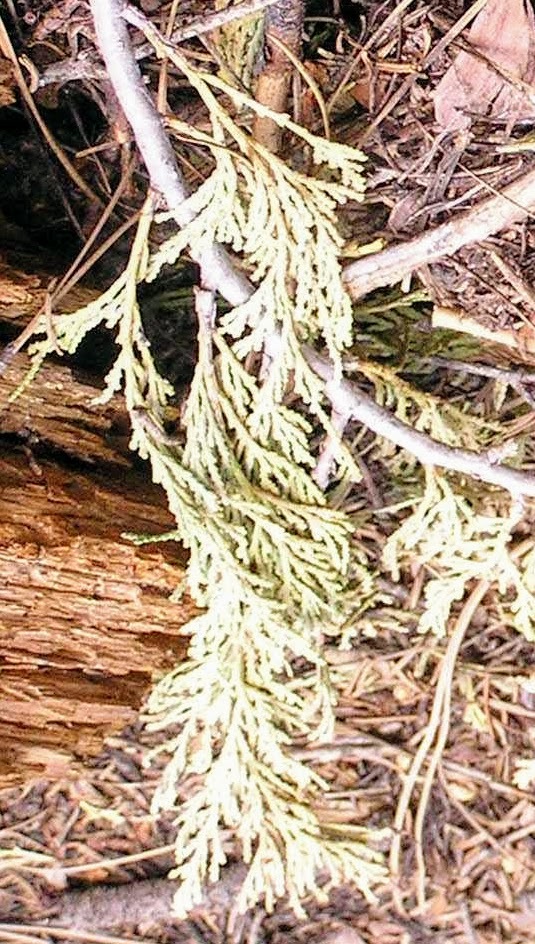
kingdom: Plantae
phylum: Tracheophyta
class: Pinopsida
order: Pinales
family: Cupressaceae
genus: Calocedrus
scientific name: Calocedrus decurrens
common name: Californian incense-cedar
